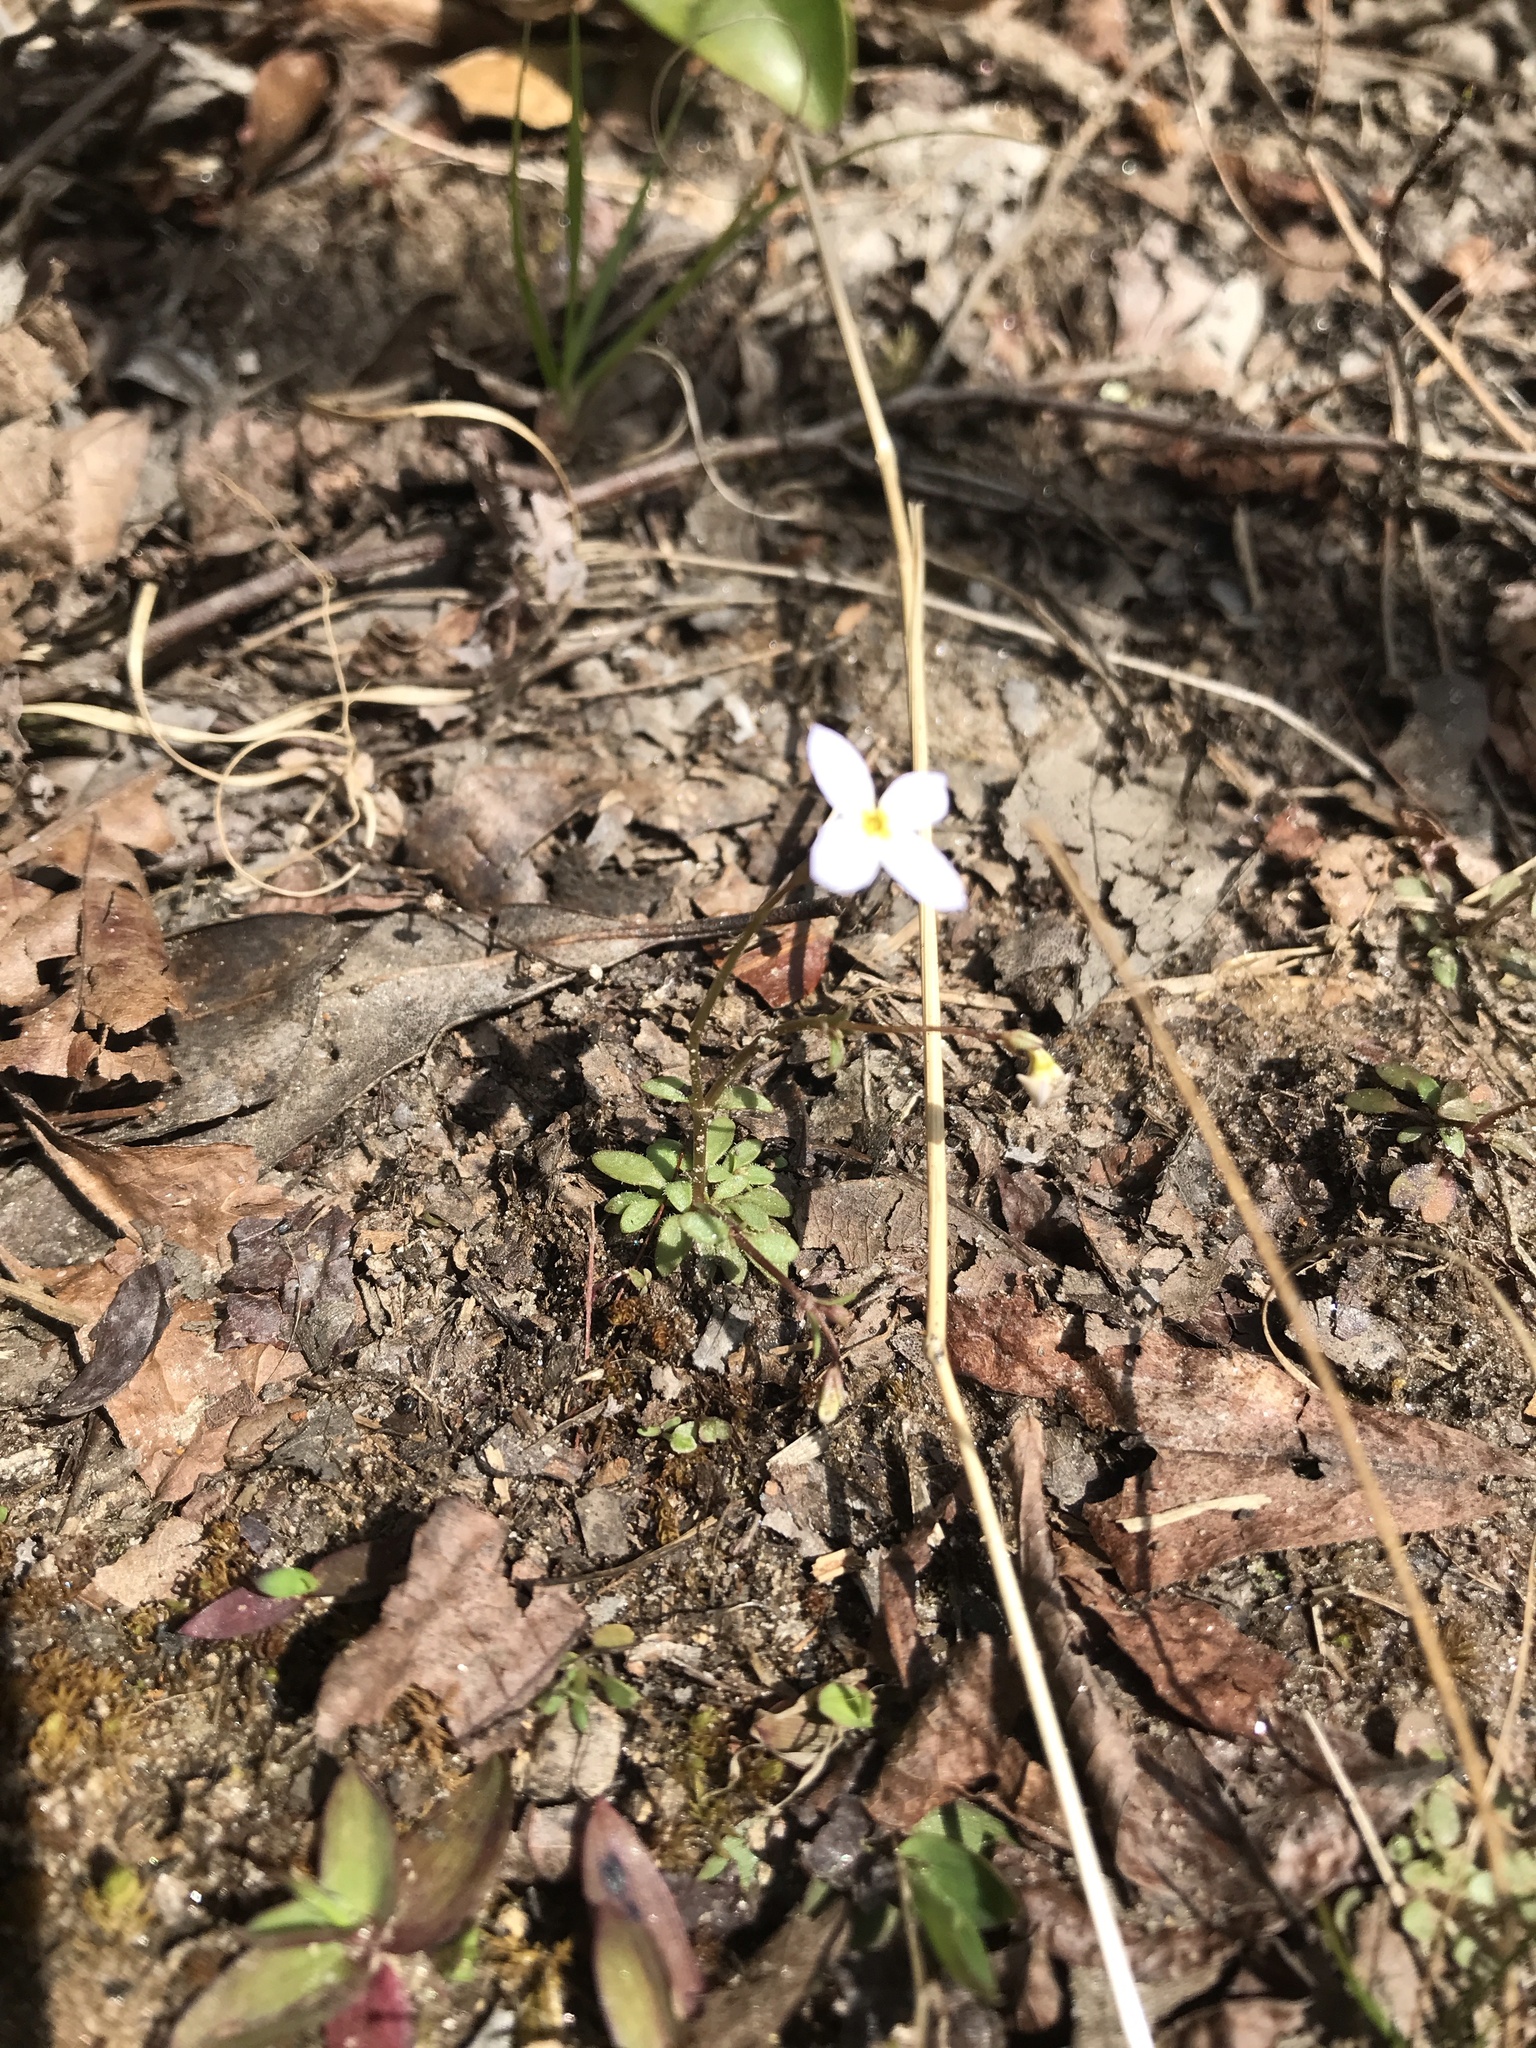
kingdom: Plantae
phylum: Tracheophyta
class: Magnoliopsida
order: Gentianales
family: Rubiaceae
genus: Houstonia
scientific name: Houstonia caerulea
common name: Bluets
